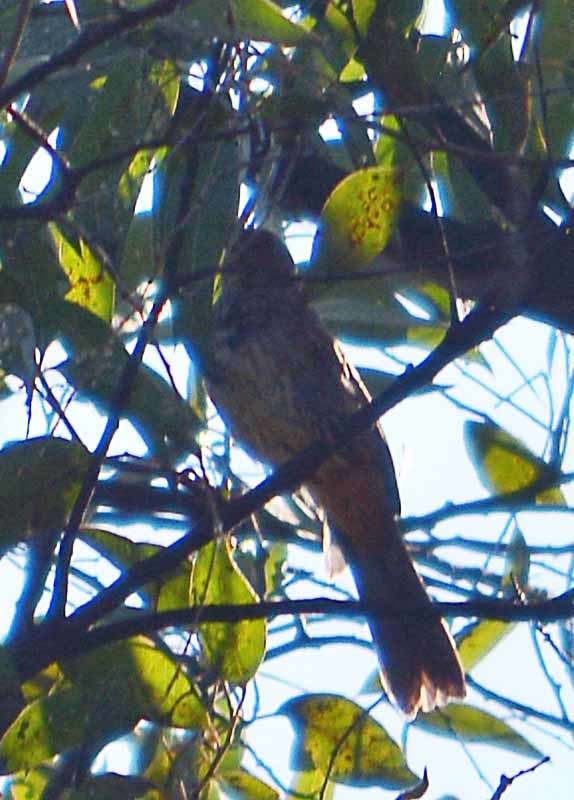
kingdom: Animalia
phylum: Chordata
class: Aves
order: Passeriformes
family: Passerellidae
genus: Melozone
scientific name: Melozone fusca
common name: Canyon towhee
